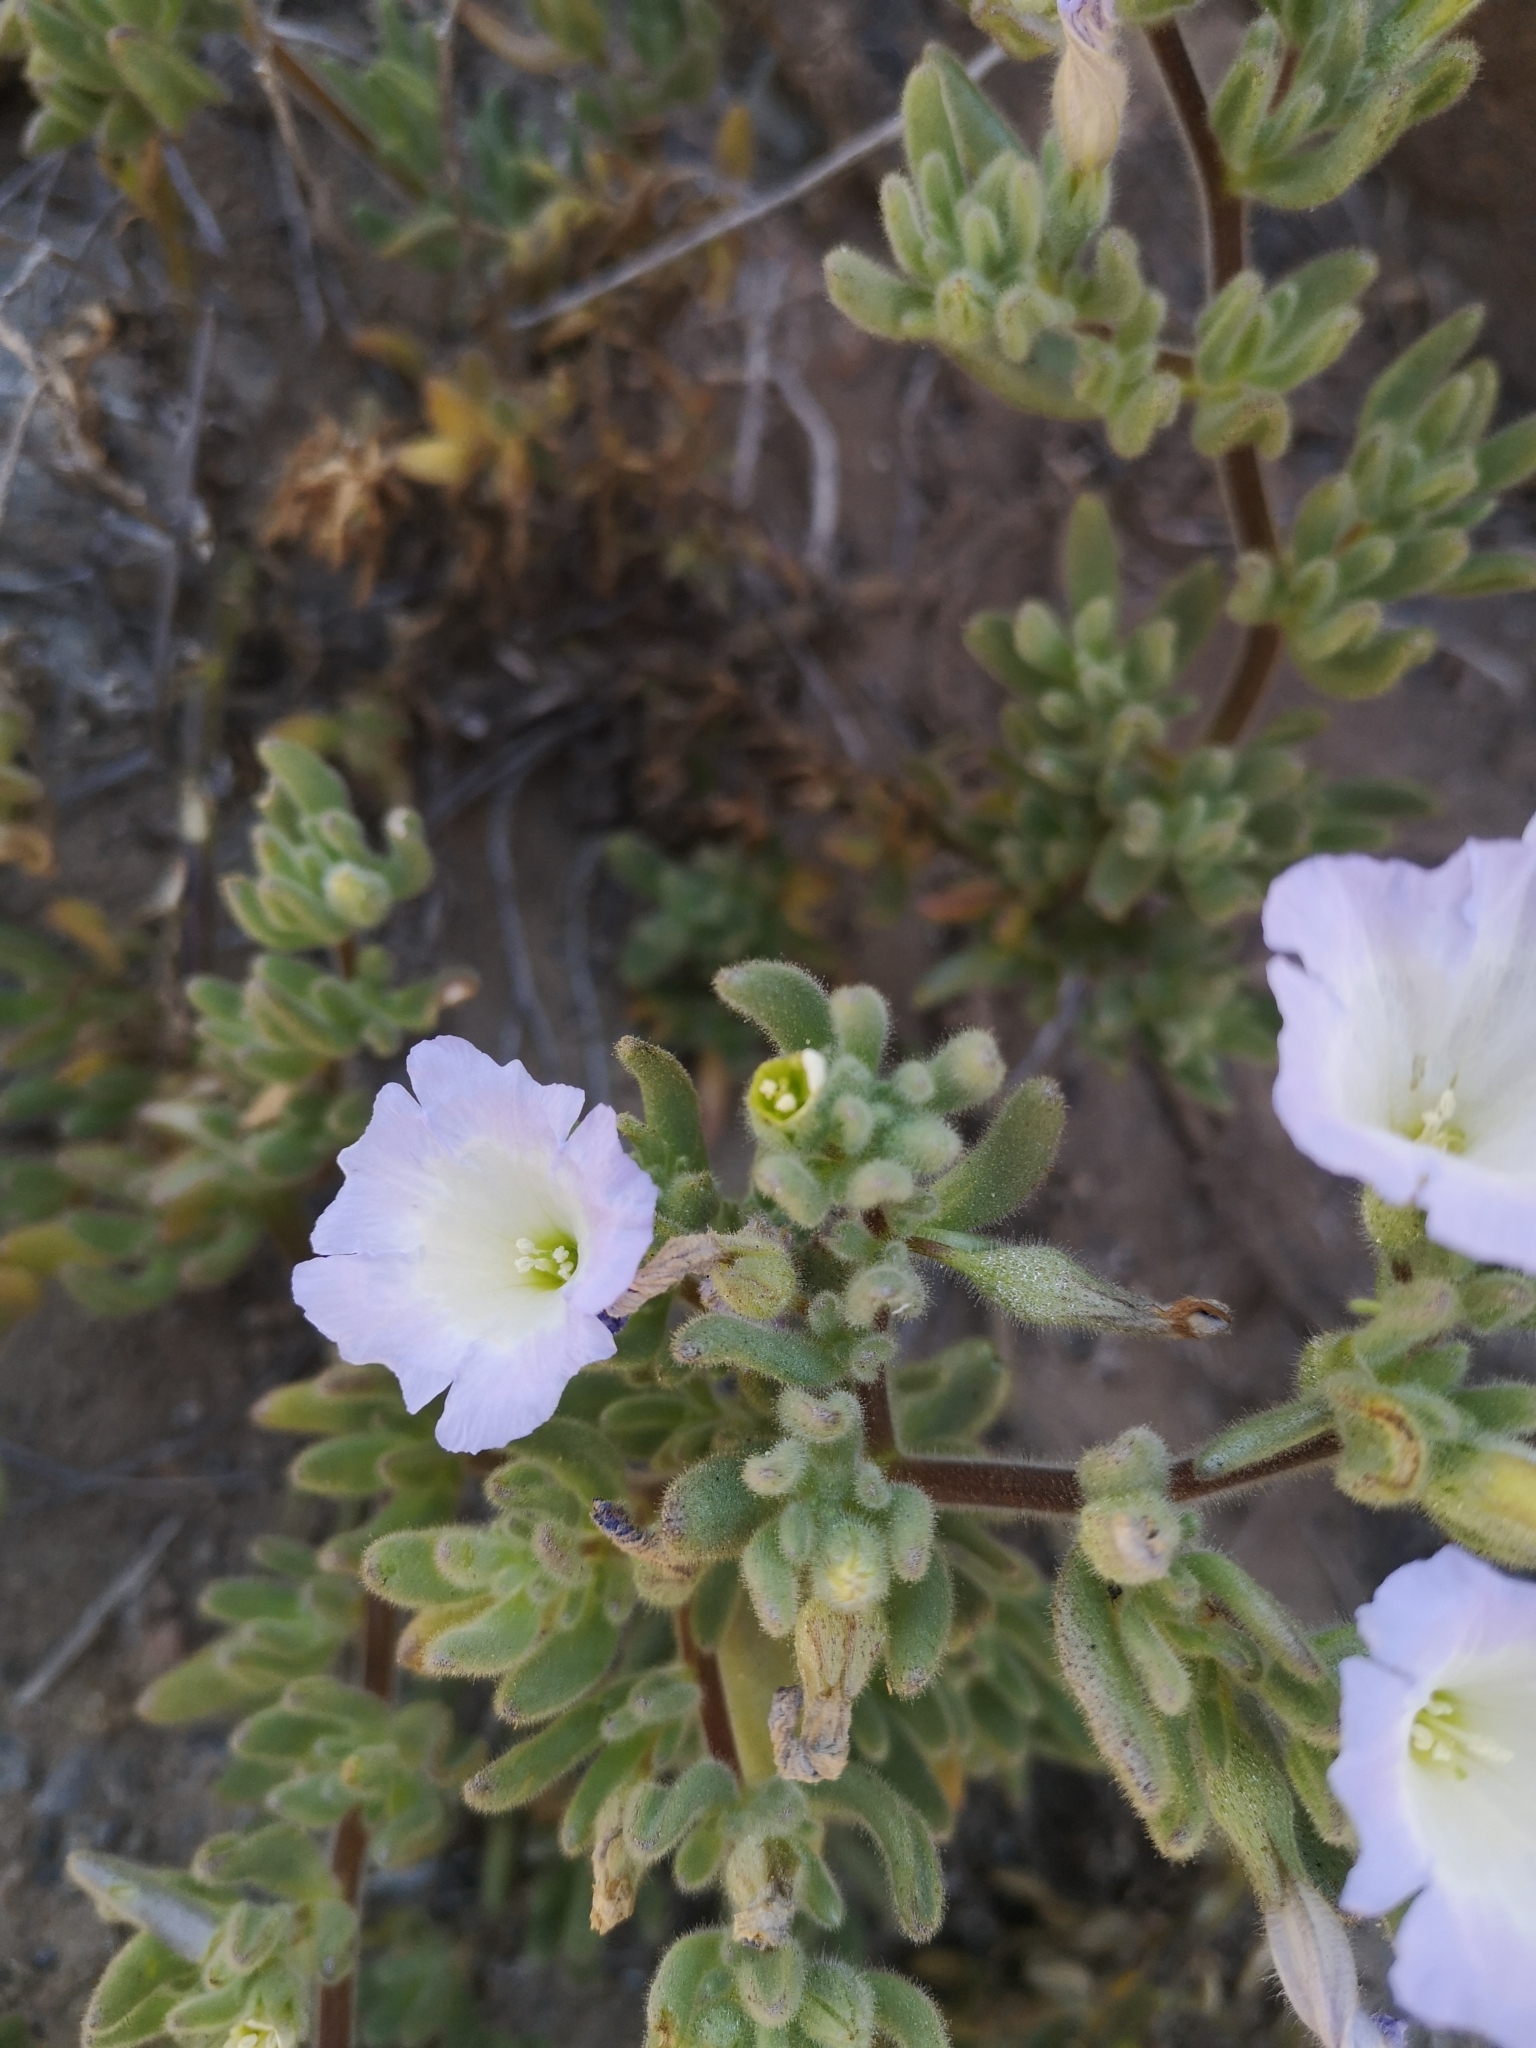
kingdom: Plantae
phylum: Tracheophyta
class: Magnoliopsida
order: Solanales
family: Solanaceae
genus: Nolana
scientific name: Nolana aplocaryoides
